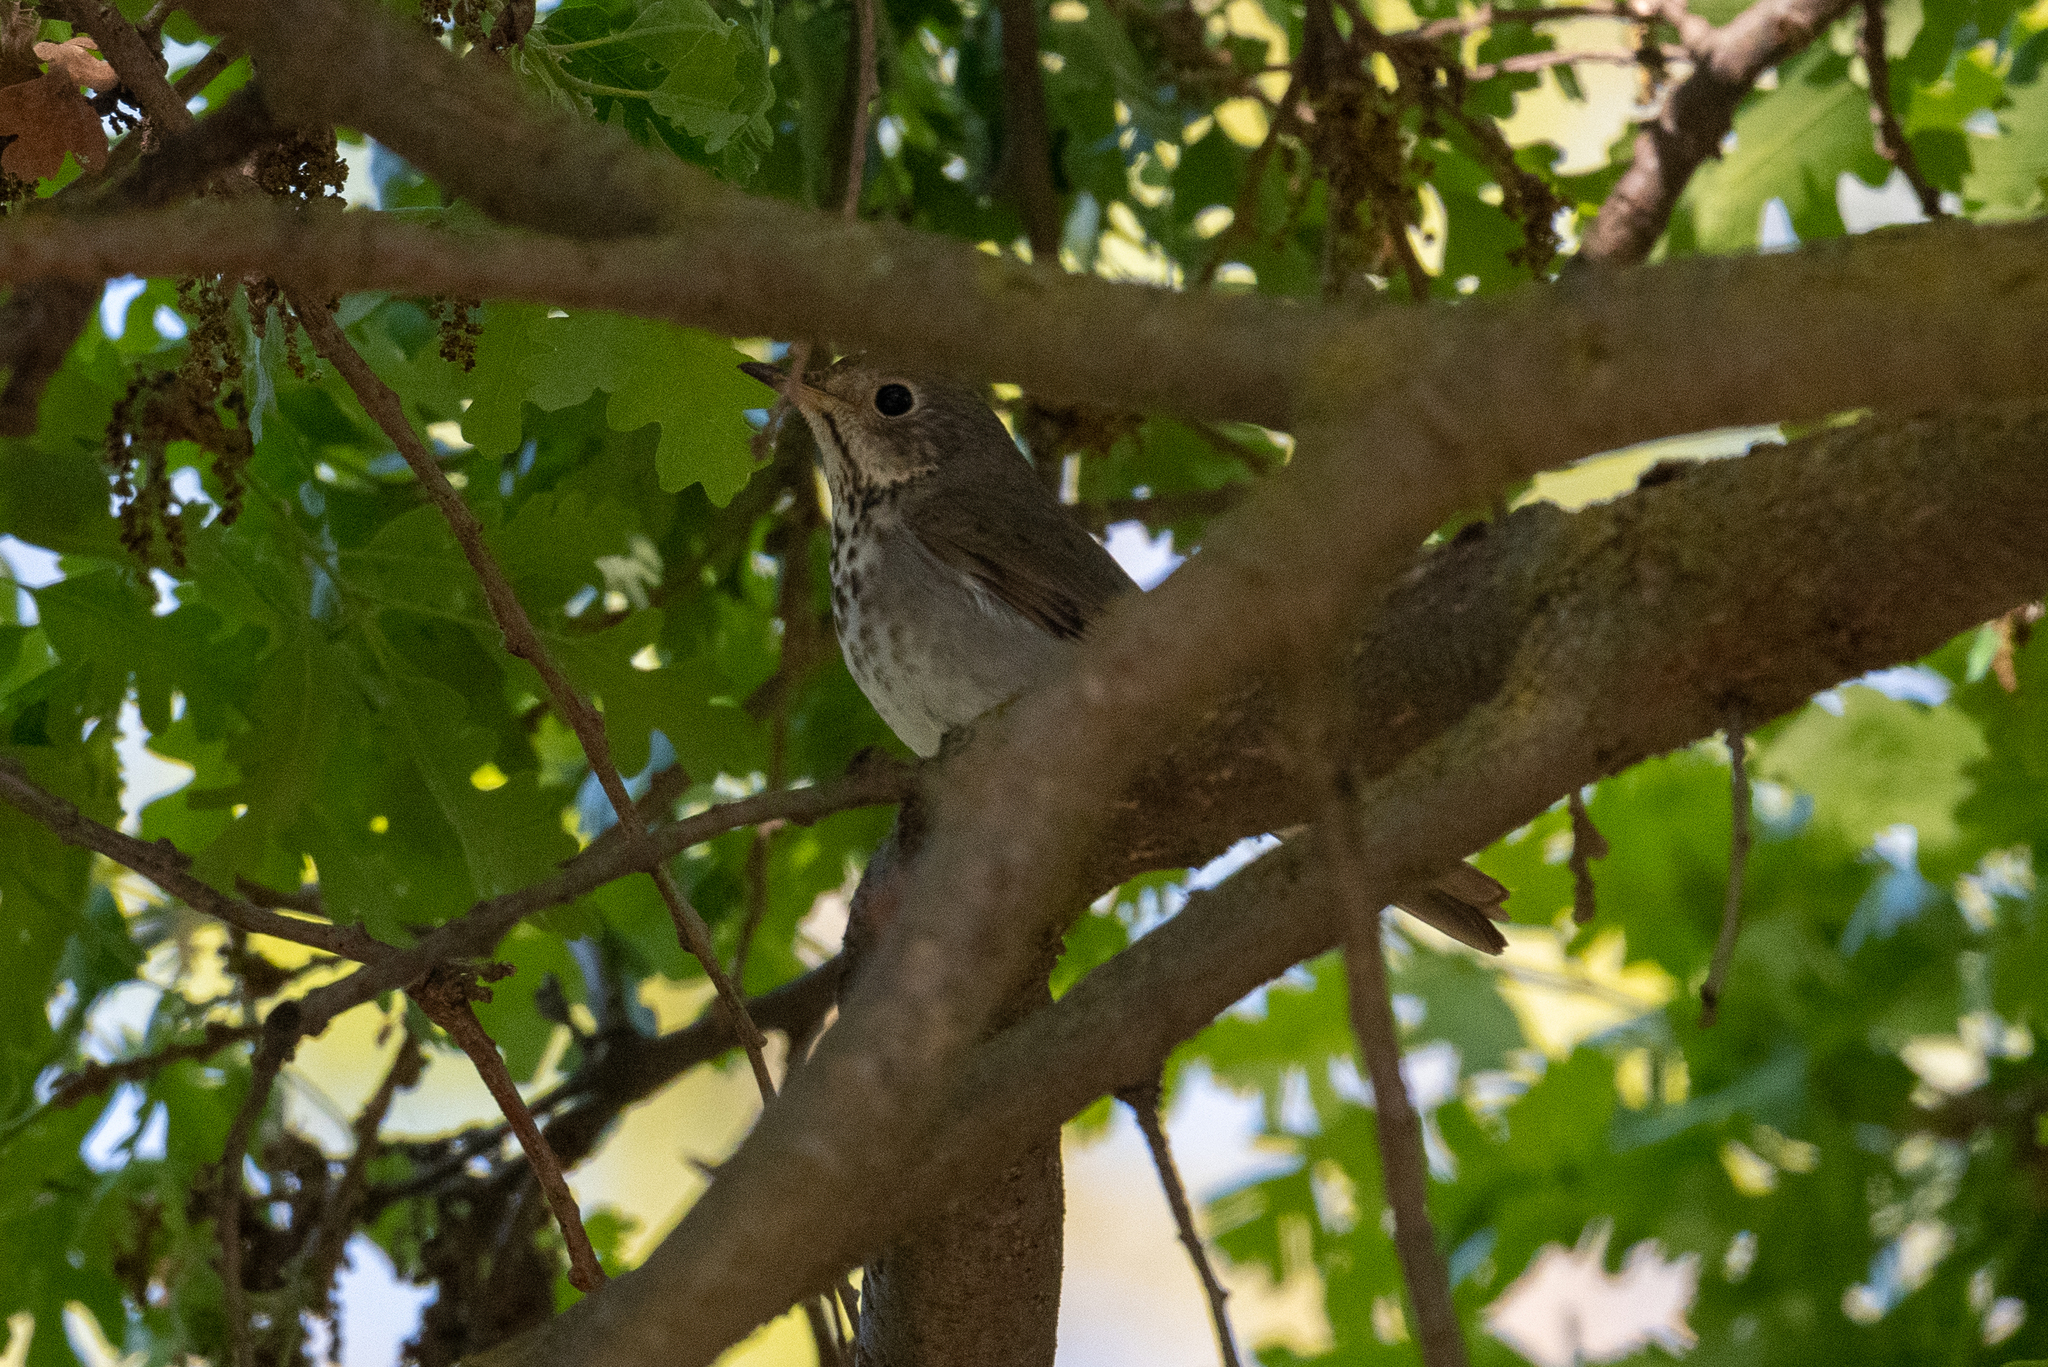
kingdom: Animalia
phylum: Chordata
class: Aves
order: Passeriformes
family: Turdidae
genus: Catharus
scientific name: Catharus guttatus
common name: Hermit thrush
